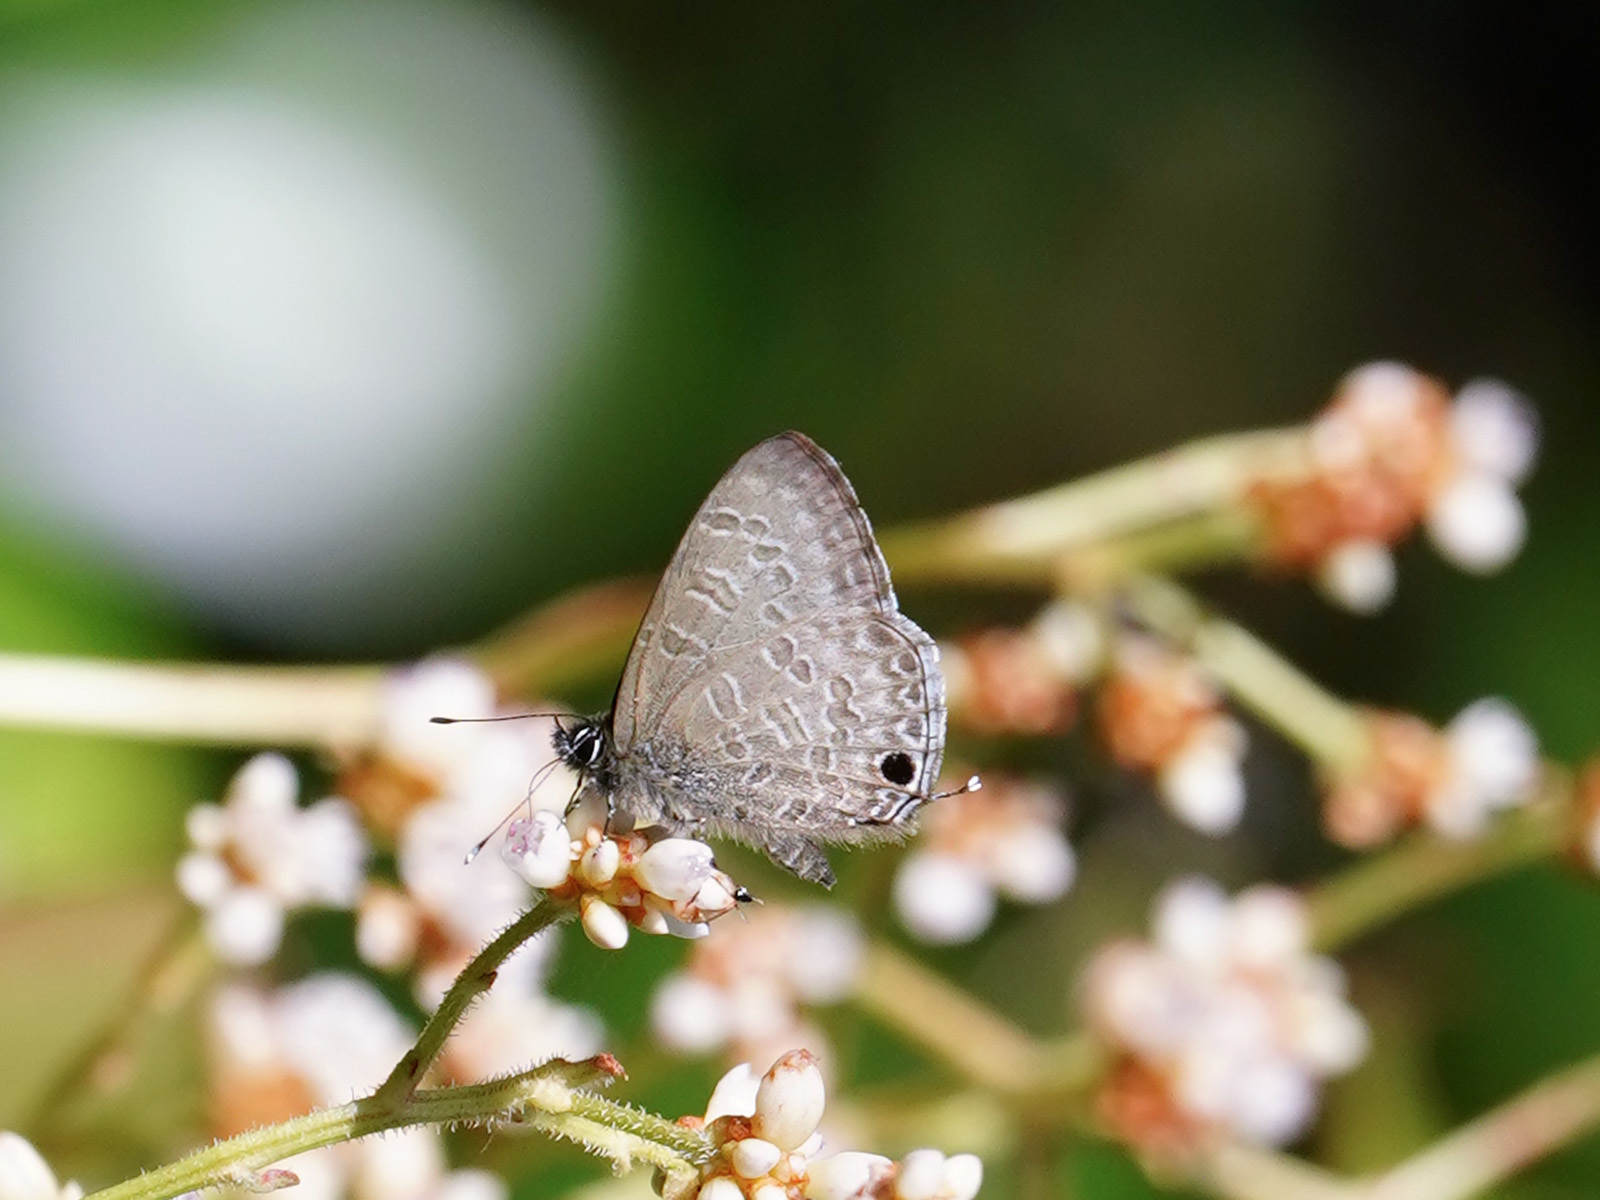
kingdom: Animalia
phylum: Arthropoda
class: Insecta
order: Lepidoptera
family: Lycaenidae
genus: Prosotas
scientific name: Prosotas nelides
